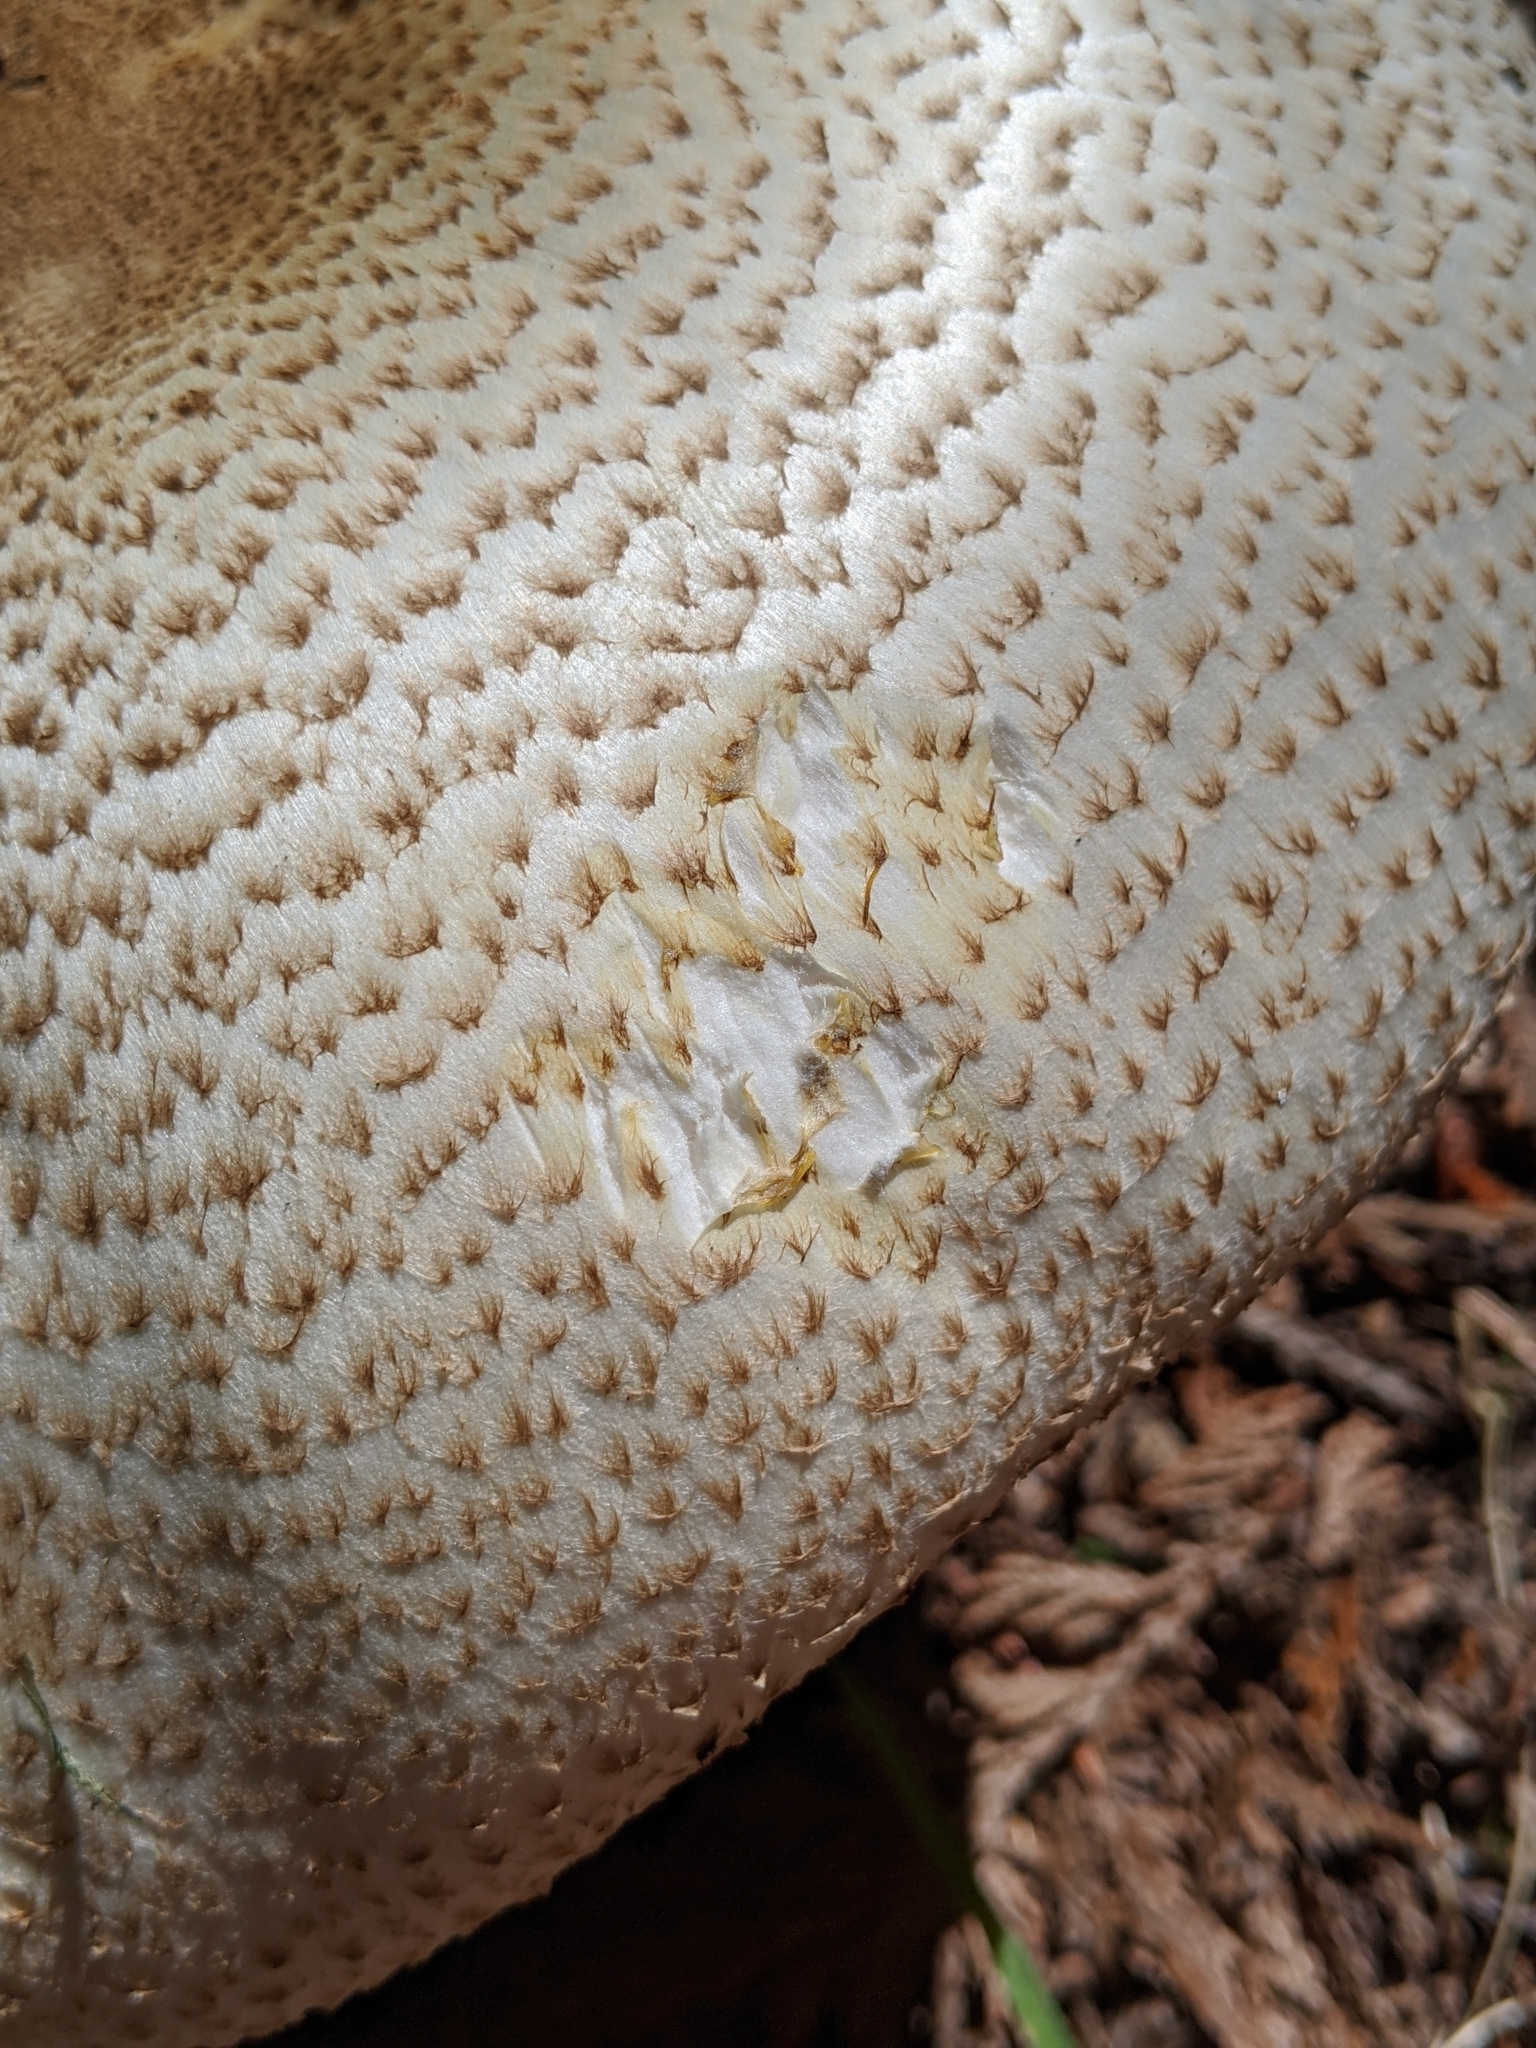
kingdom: Fungi
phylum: Basidiomycota
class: Agaricomycetes
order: Agaricales
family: Agaricaceae
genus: Agaricus
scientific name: Agaricus augustus
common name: Prince
